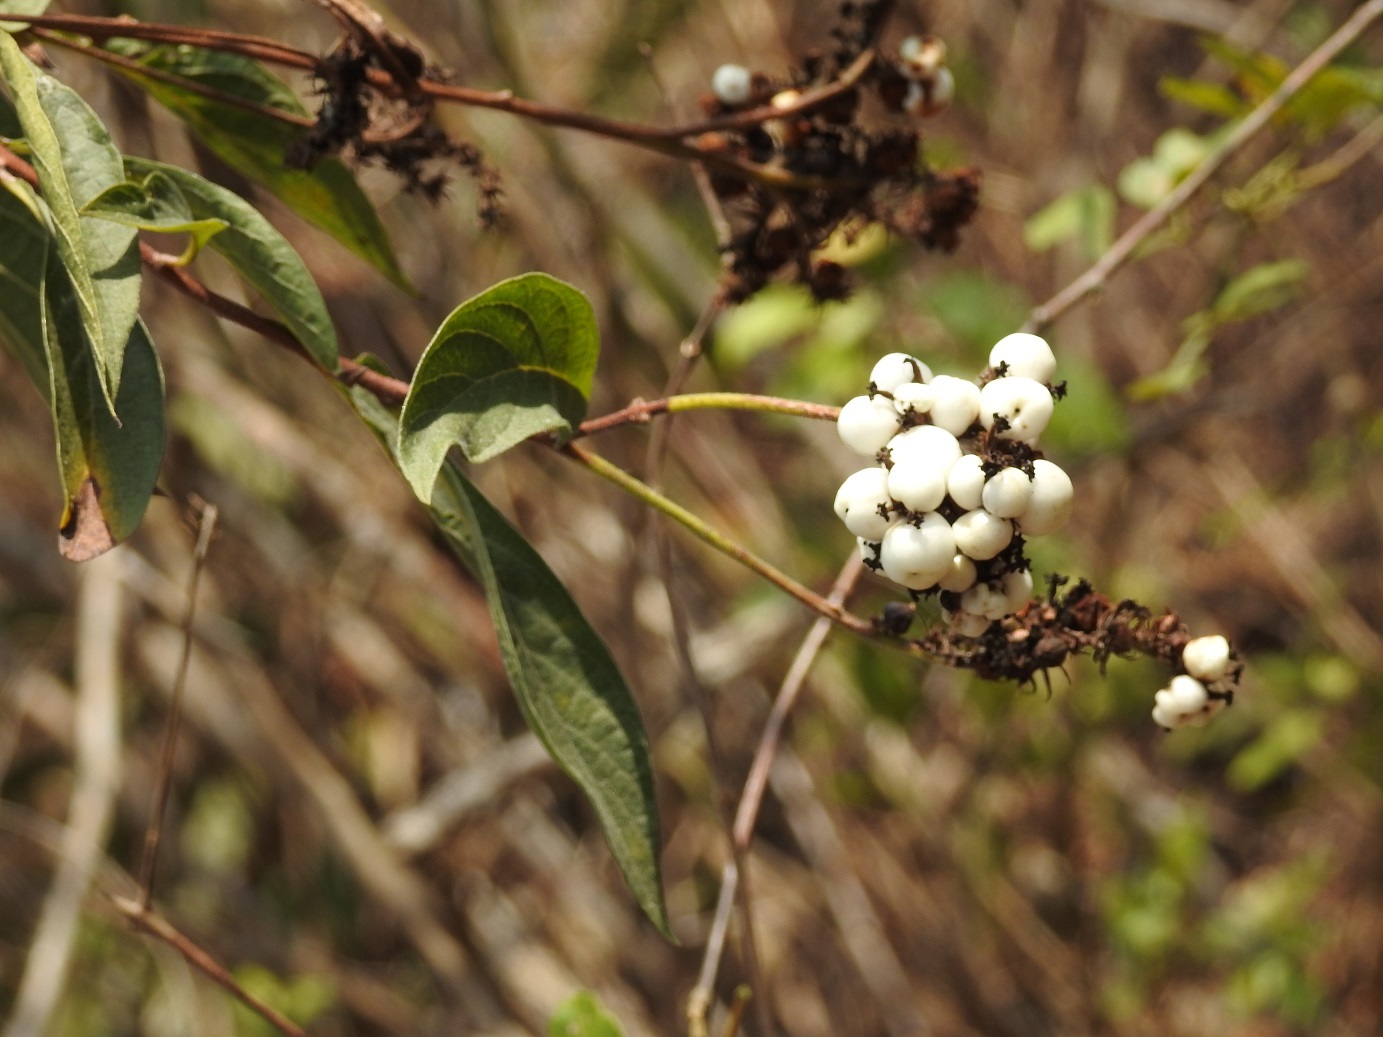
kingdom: Plantae
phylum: Tracheophyta
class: Magnoliopsida
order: Boraginales
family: Cordiaceae
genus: Varronia
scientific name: Varronia foliosa
